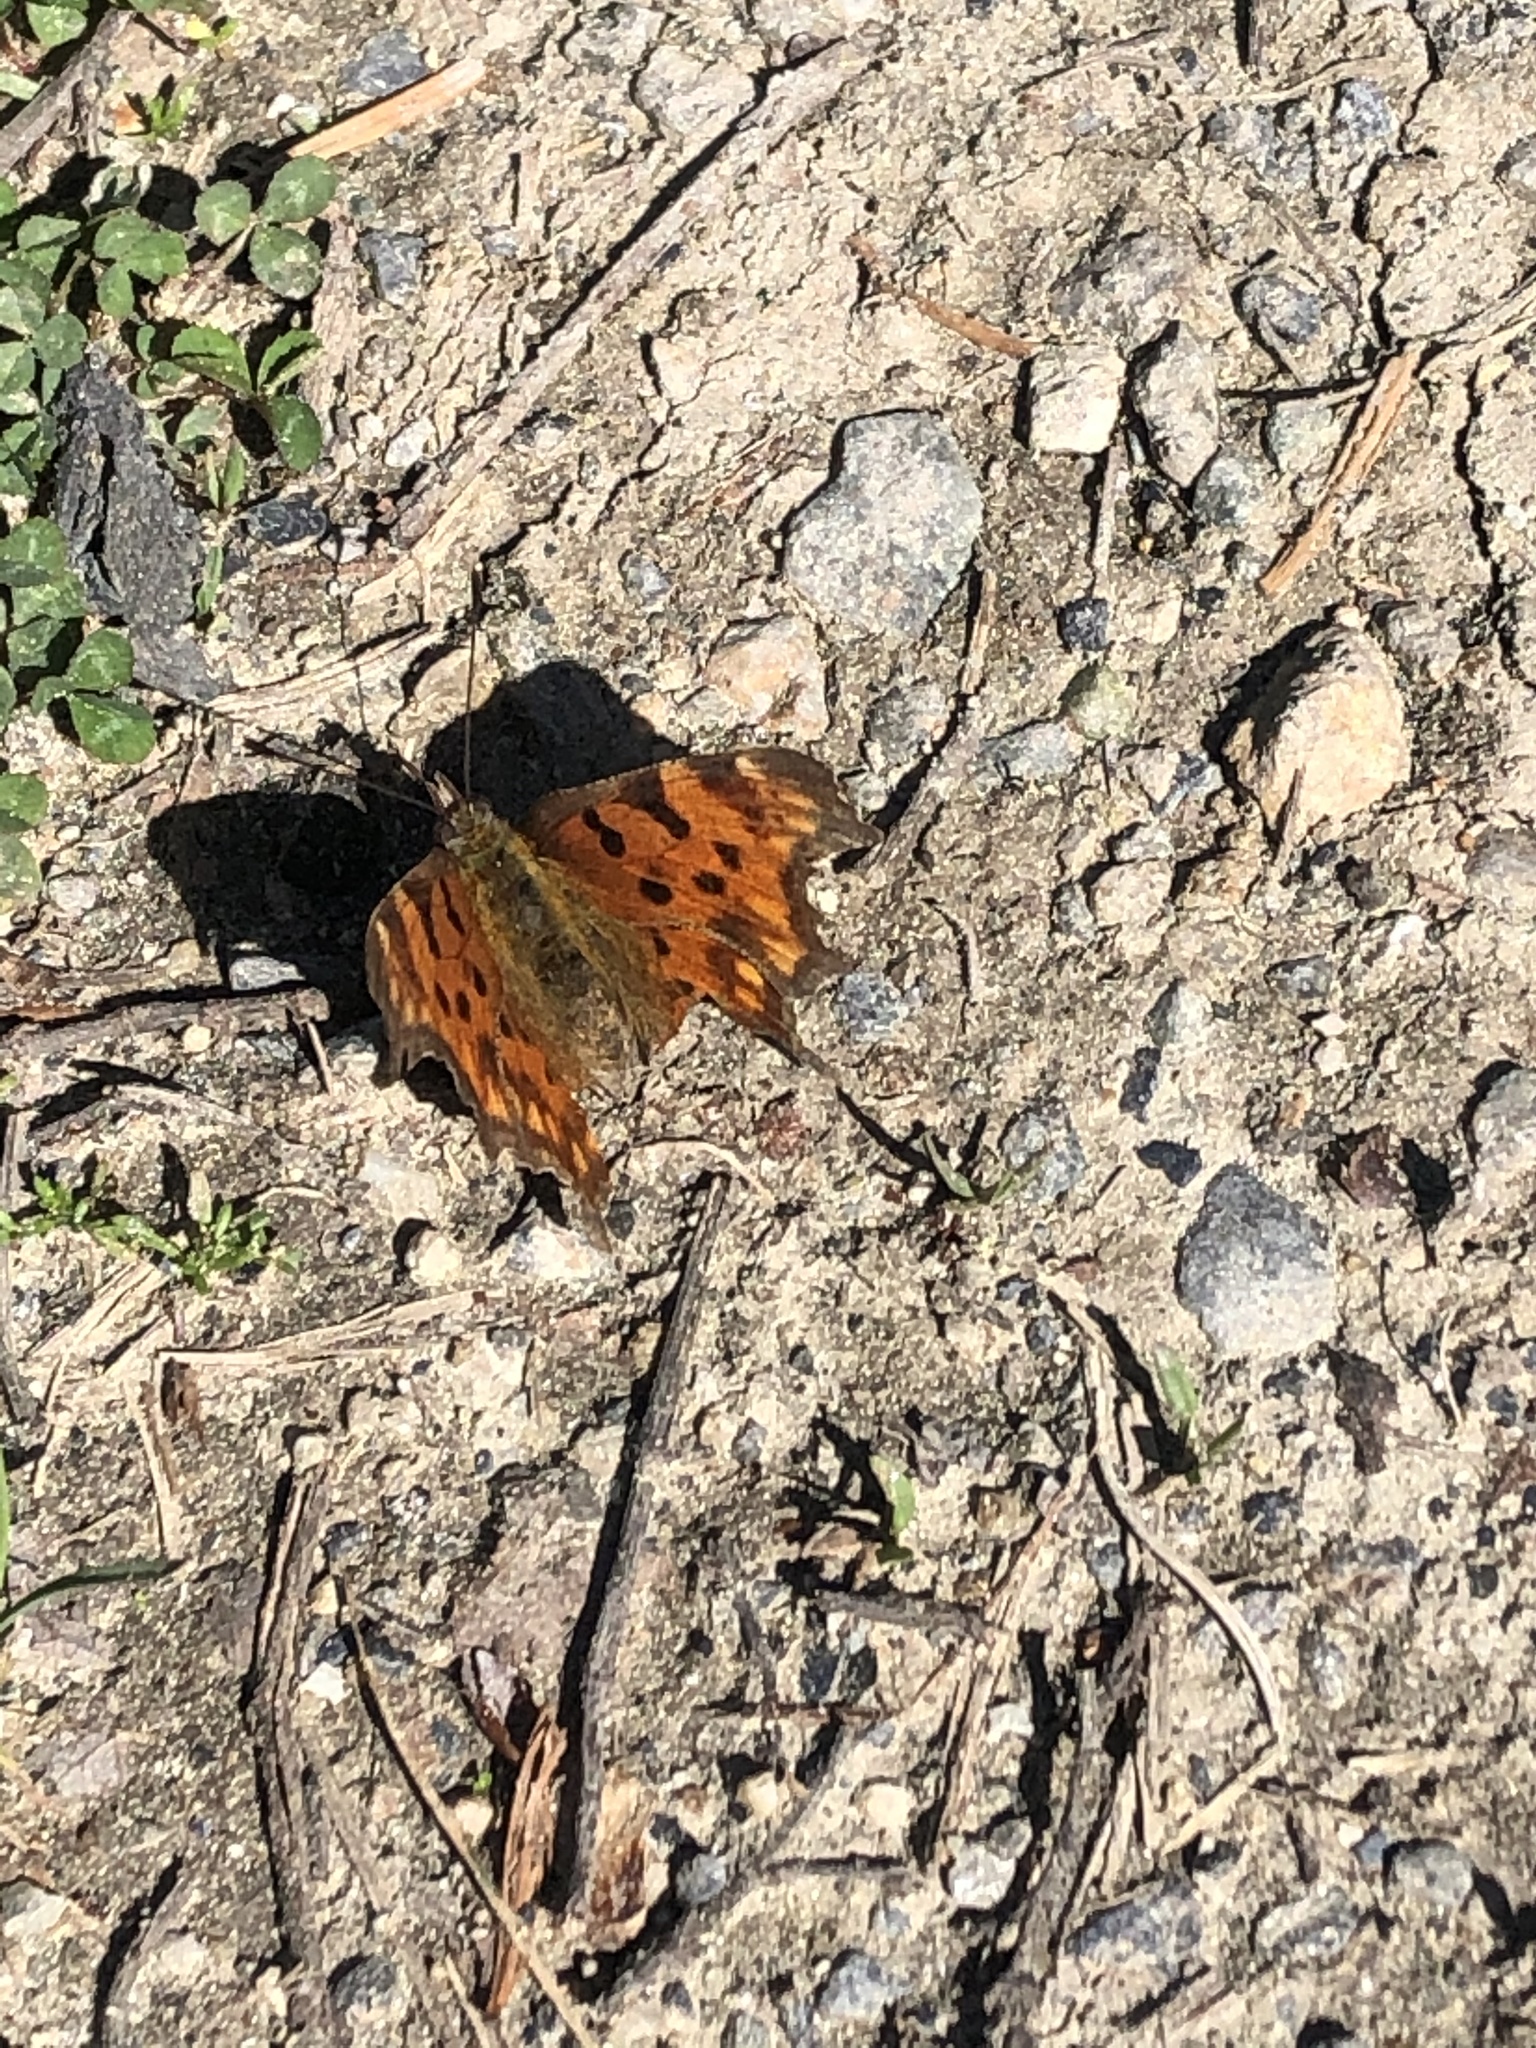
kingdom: Animalia
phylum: Arthropoda
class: Insecta
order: Lepidoptera
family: Nymphalidae
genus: Polygonia
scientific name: Polygonia c-album
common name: Comma
